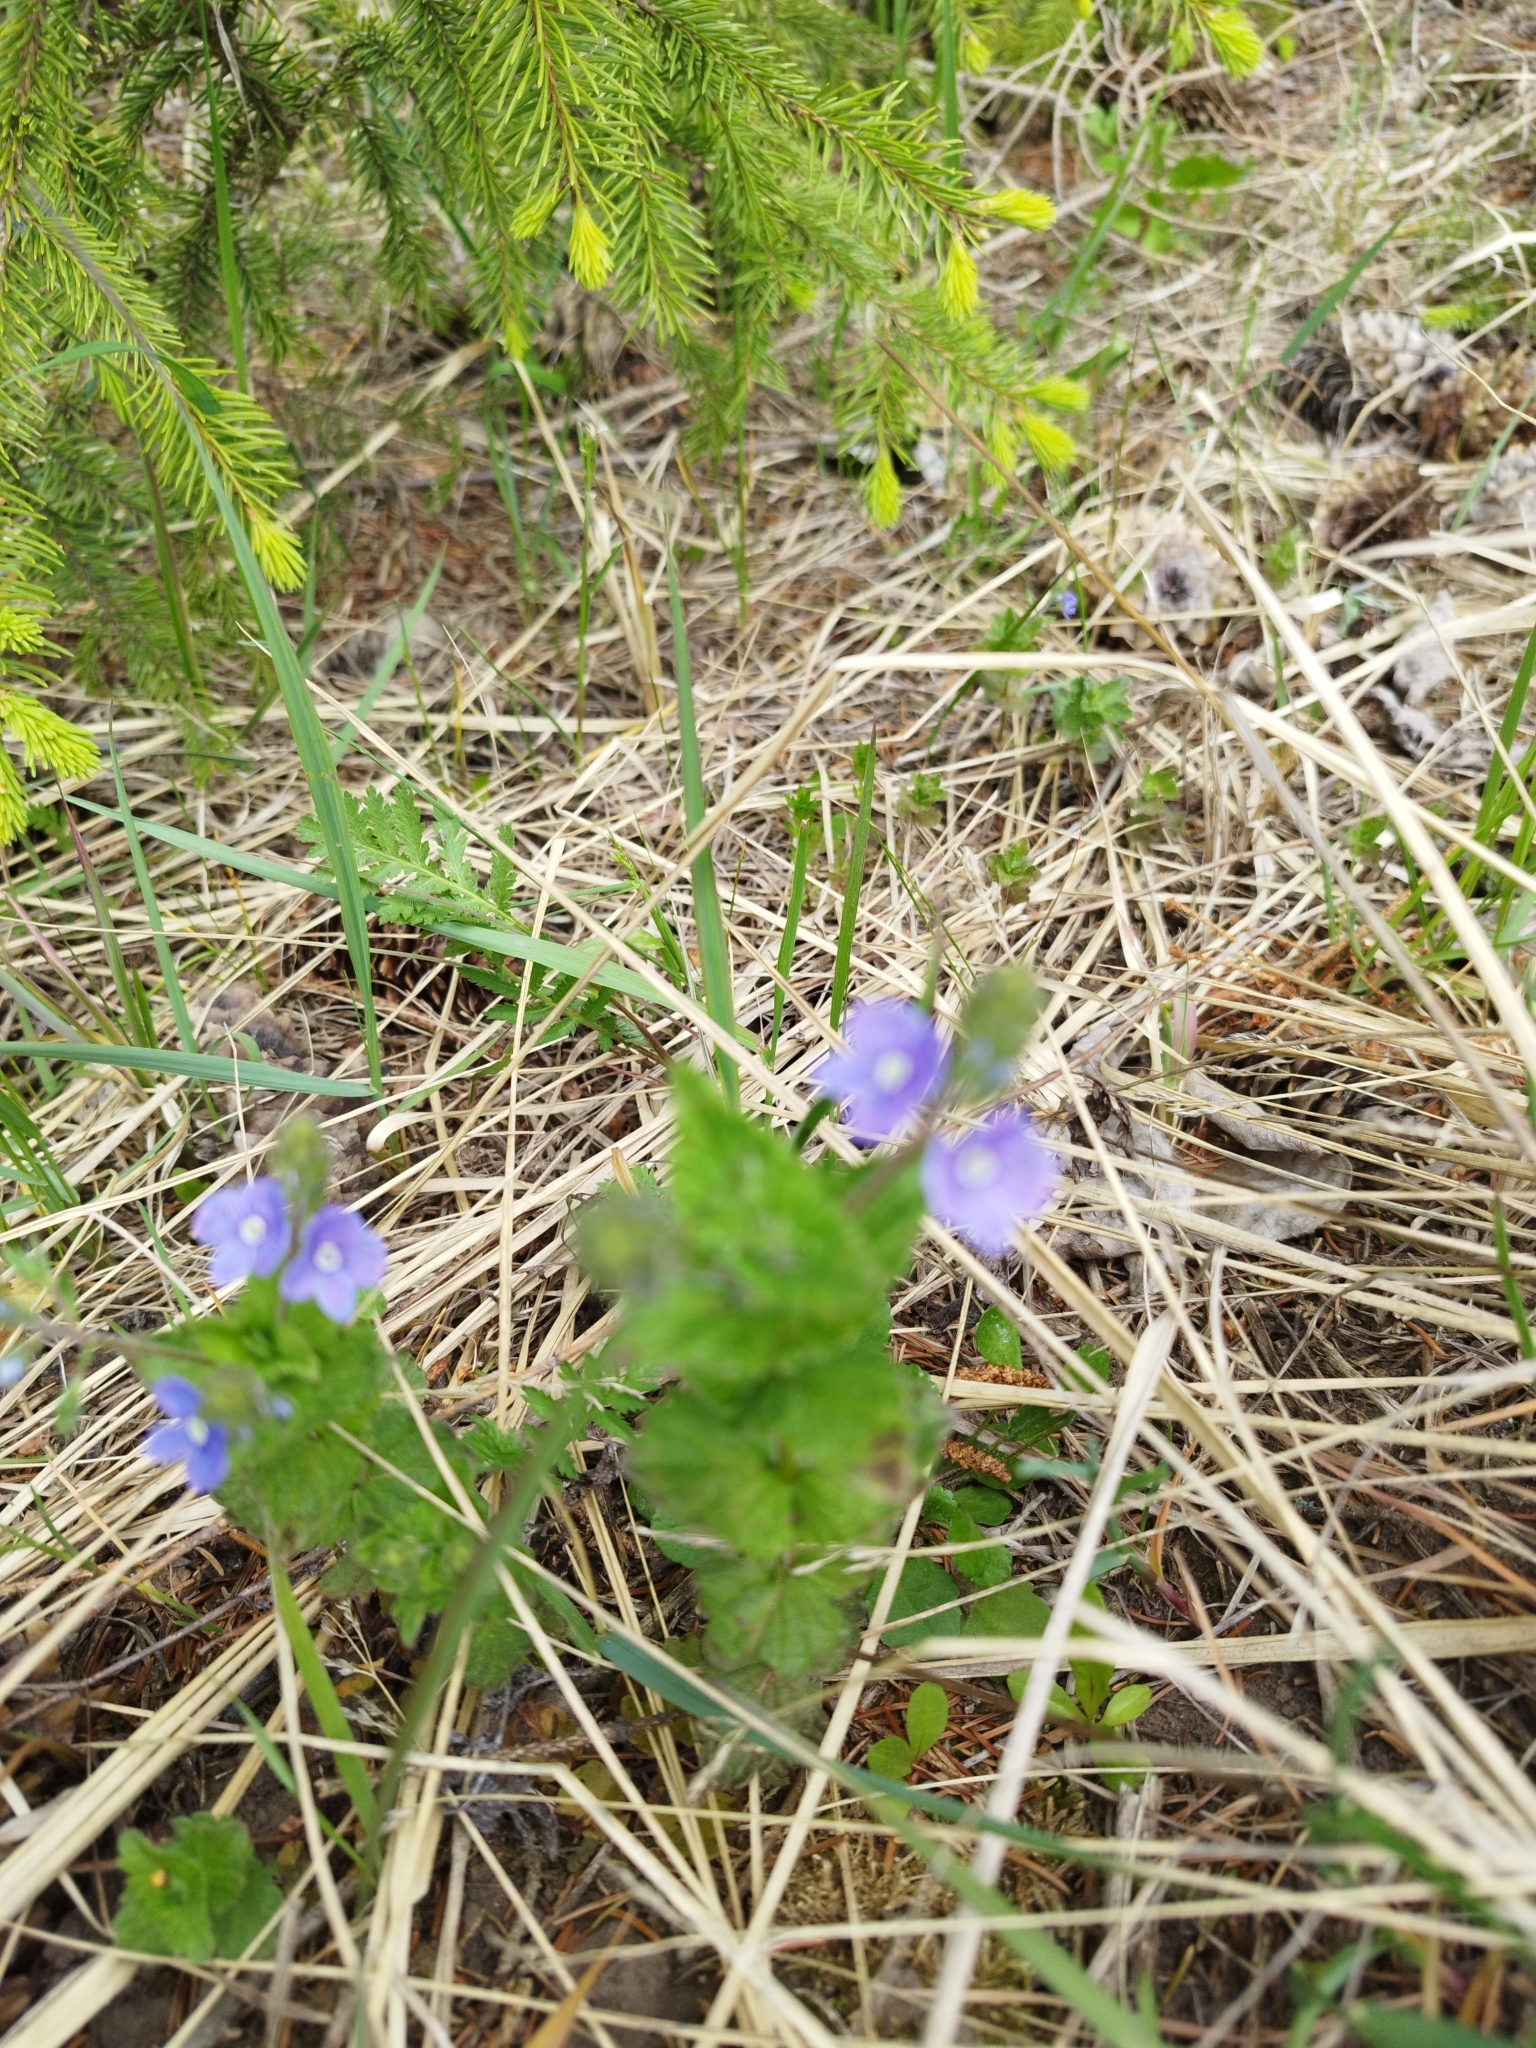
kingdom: Plantae
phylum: Tracheophyta
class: Magnoliopsida
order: Lamiales
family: Plantaginaceae
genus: Veronica
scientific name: Veronica chamaedrys
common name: Germander speedwell
